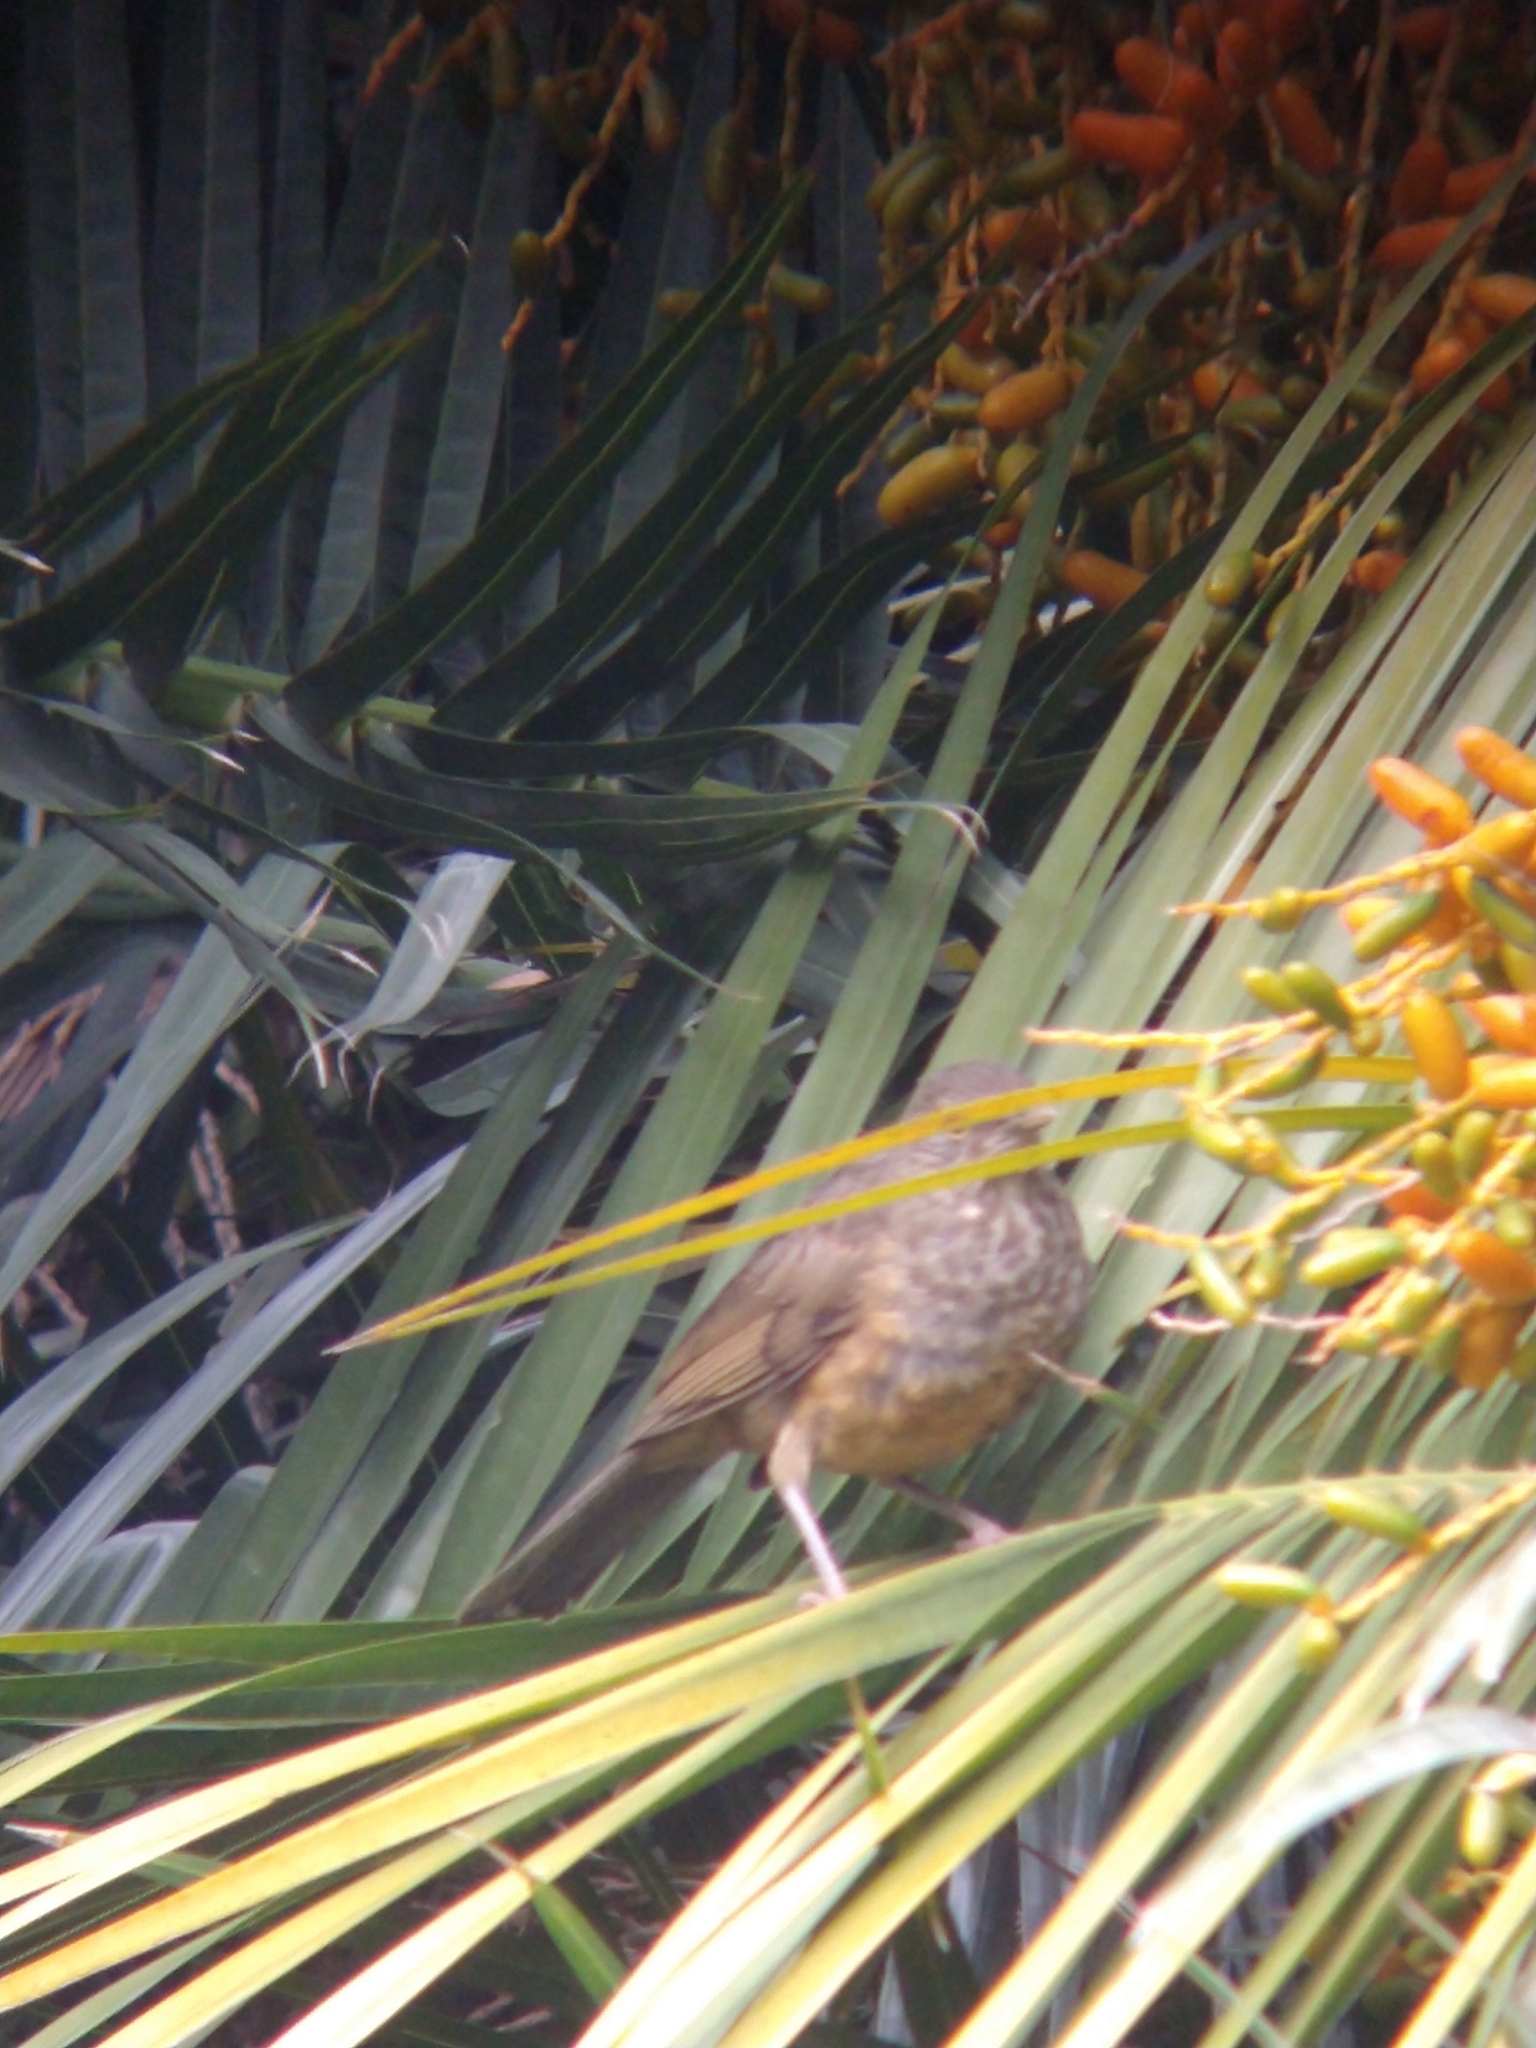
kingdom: Animalia
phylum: Chordata
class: Aves
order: Passeriformes
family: Turdidae
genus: Turdus
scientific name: Turdus rufiventris
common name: Rufous-bellied thrush
